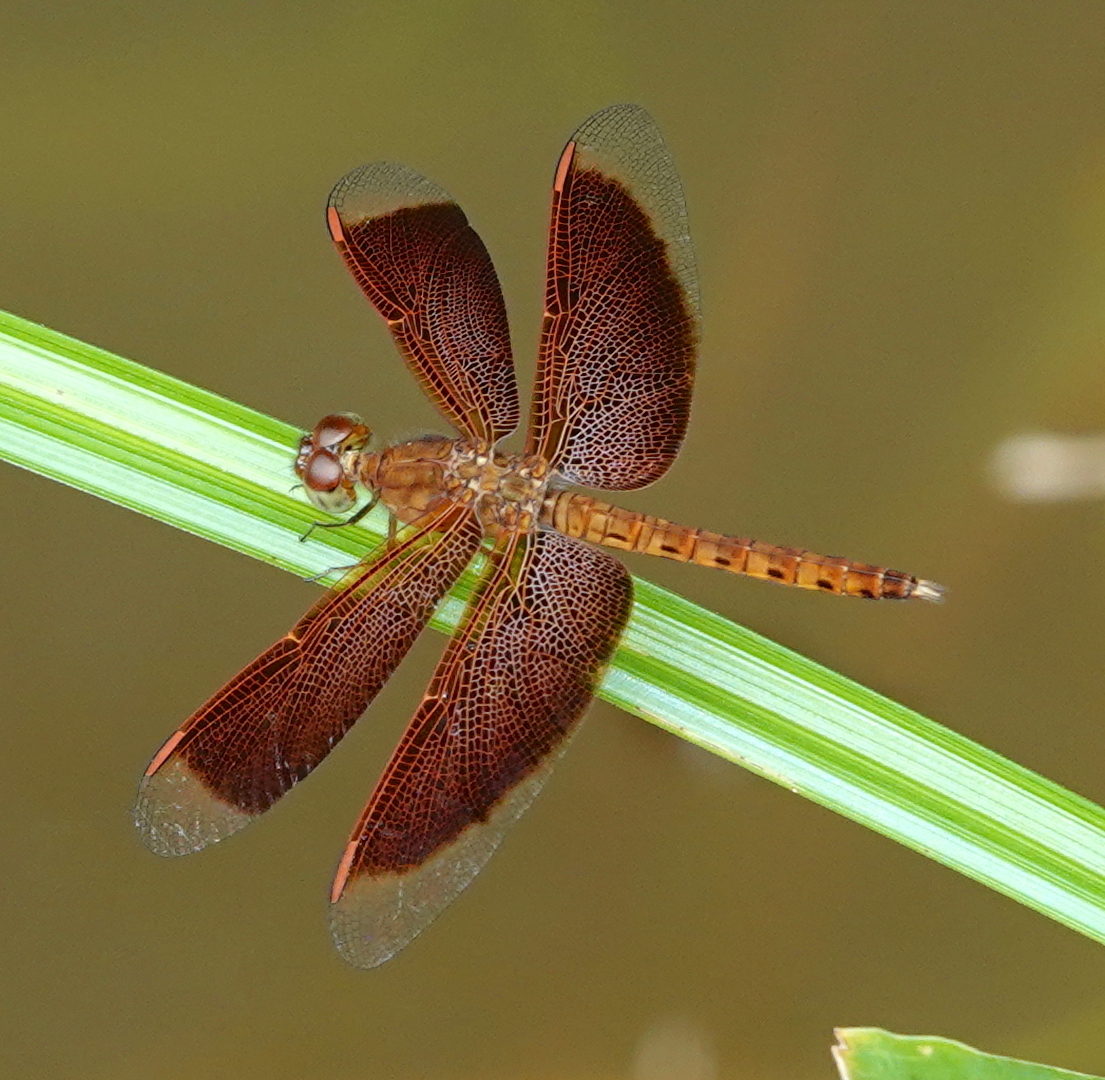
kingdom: Animalia
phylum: Arthropoda
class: Insecta
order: Odonata
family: Libellulidae
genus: Neurothemis
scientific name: Neurothemis fluctuans
